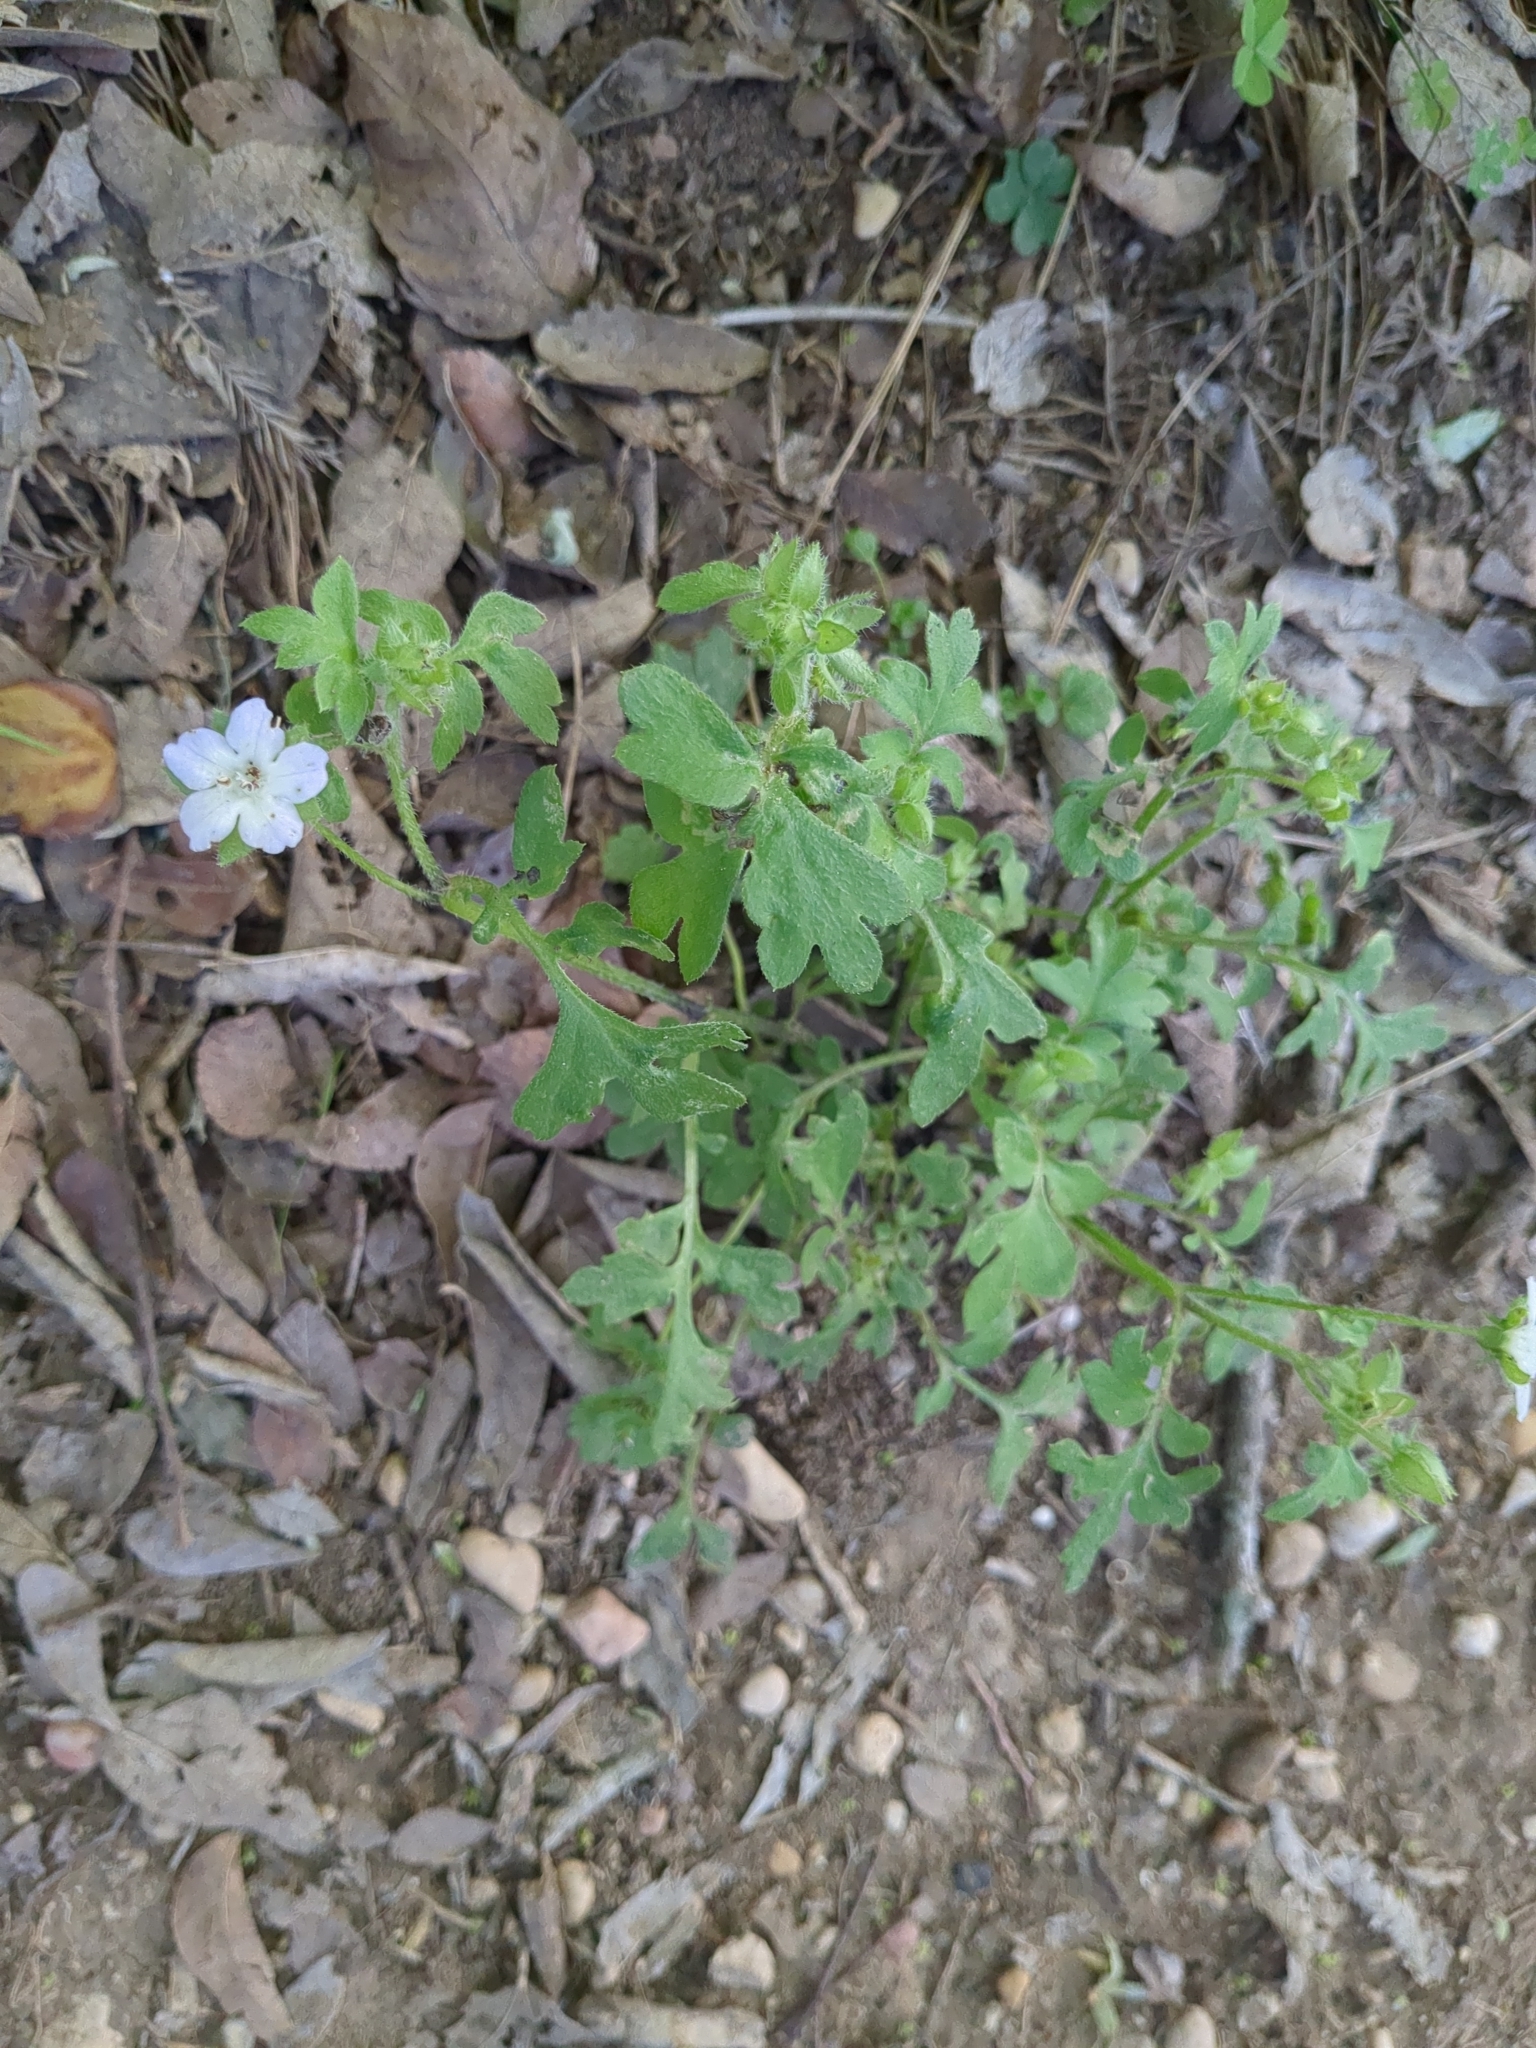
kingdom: Plantae
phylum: Tracheophyta
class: Magnoliopsida
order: Boraginales
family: Hydrophyllaceae
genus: Nemophila
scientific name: Nemophila phacelioides
